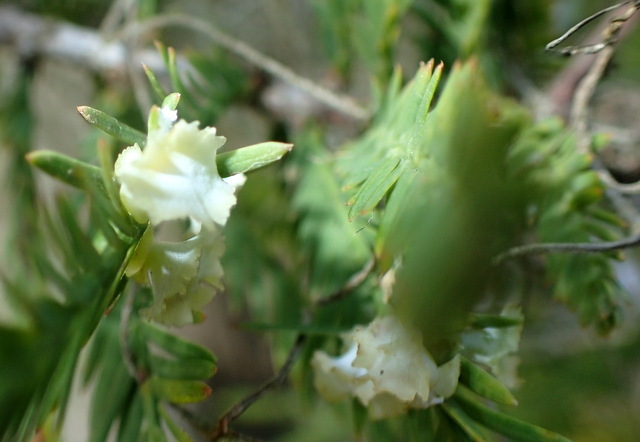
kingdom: Animalia
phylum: Arthropoda
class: Insecta
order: Diptera
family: Cecidomyiidae
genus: Taxodiomyia
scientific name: Taxodiomyia cupressi
